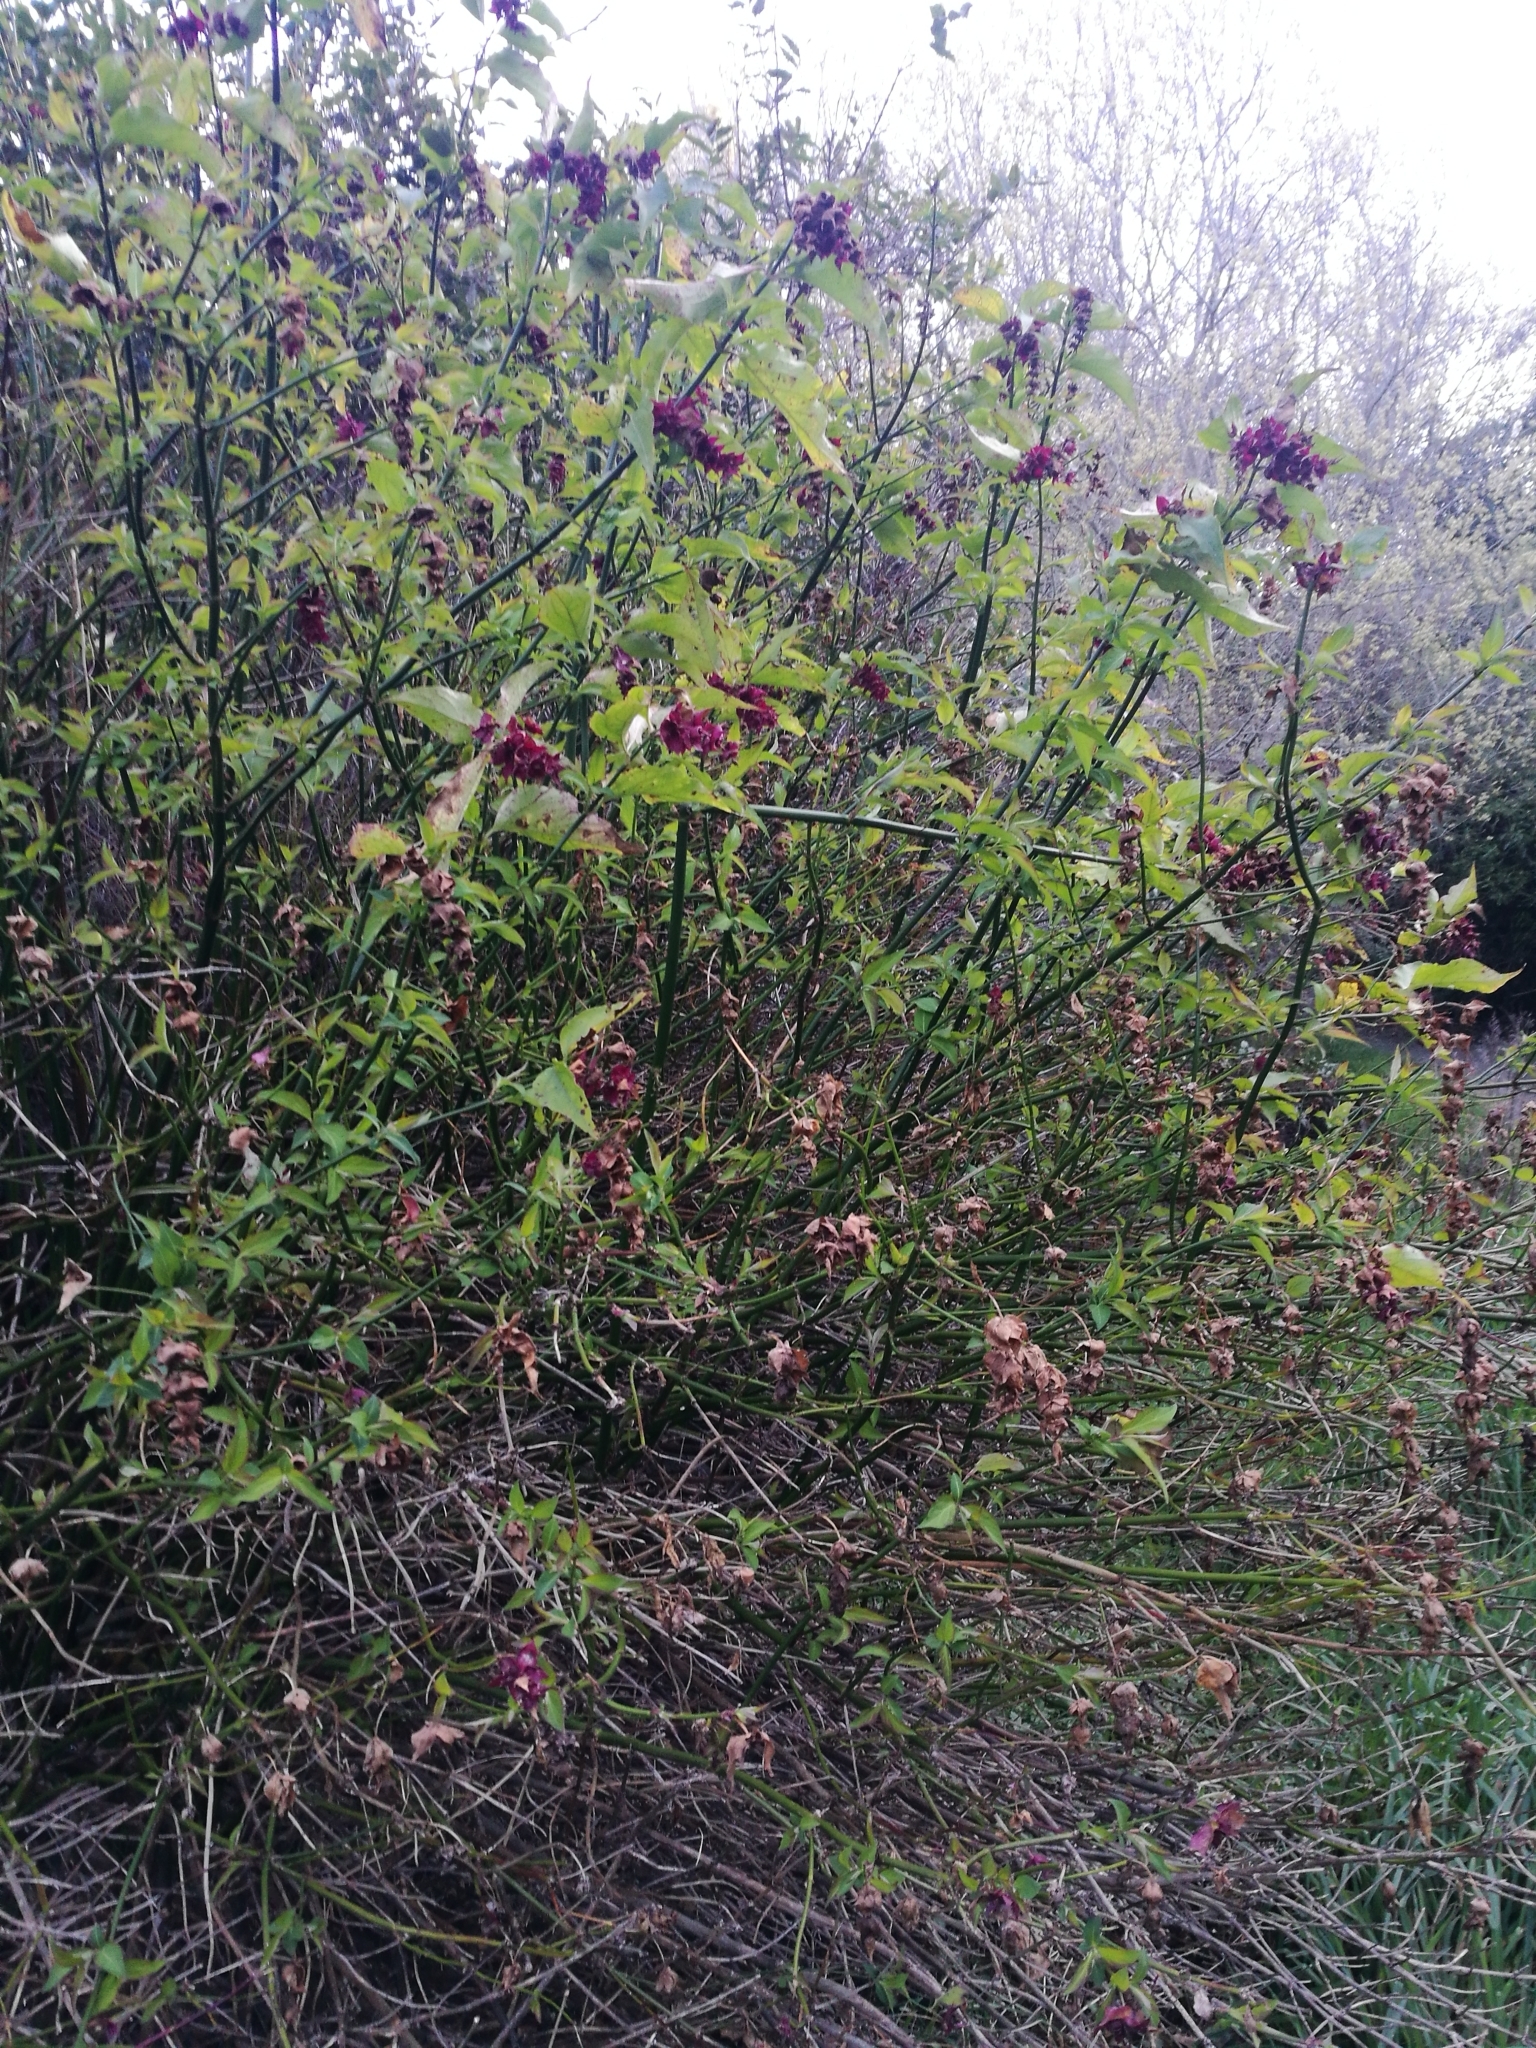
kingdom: Plantae
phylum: Tracheophyta
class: Magnoliopsida
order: Dipsacales
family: Caprifoliaceae
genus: Leycesteria
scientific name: Leycesteria formosa
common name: Himalayan honeysuckle
